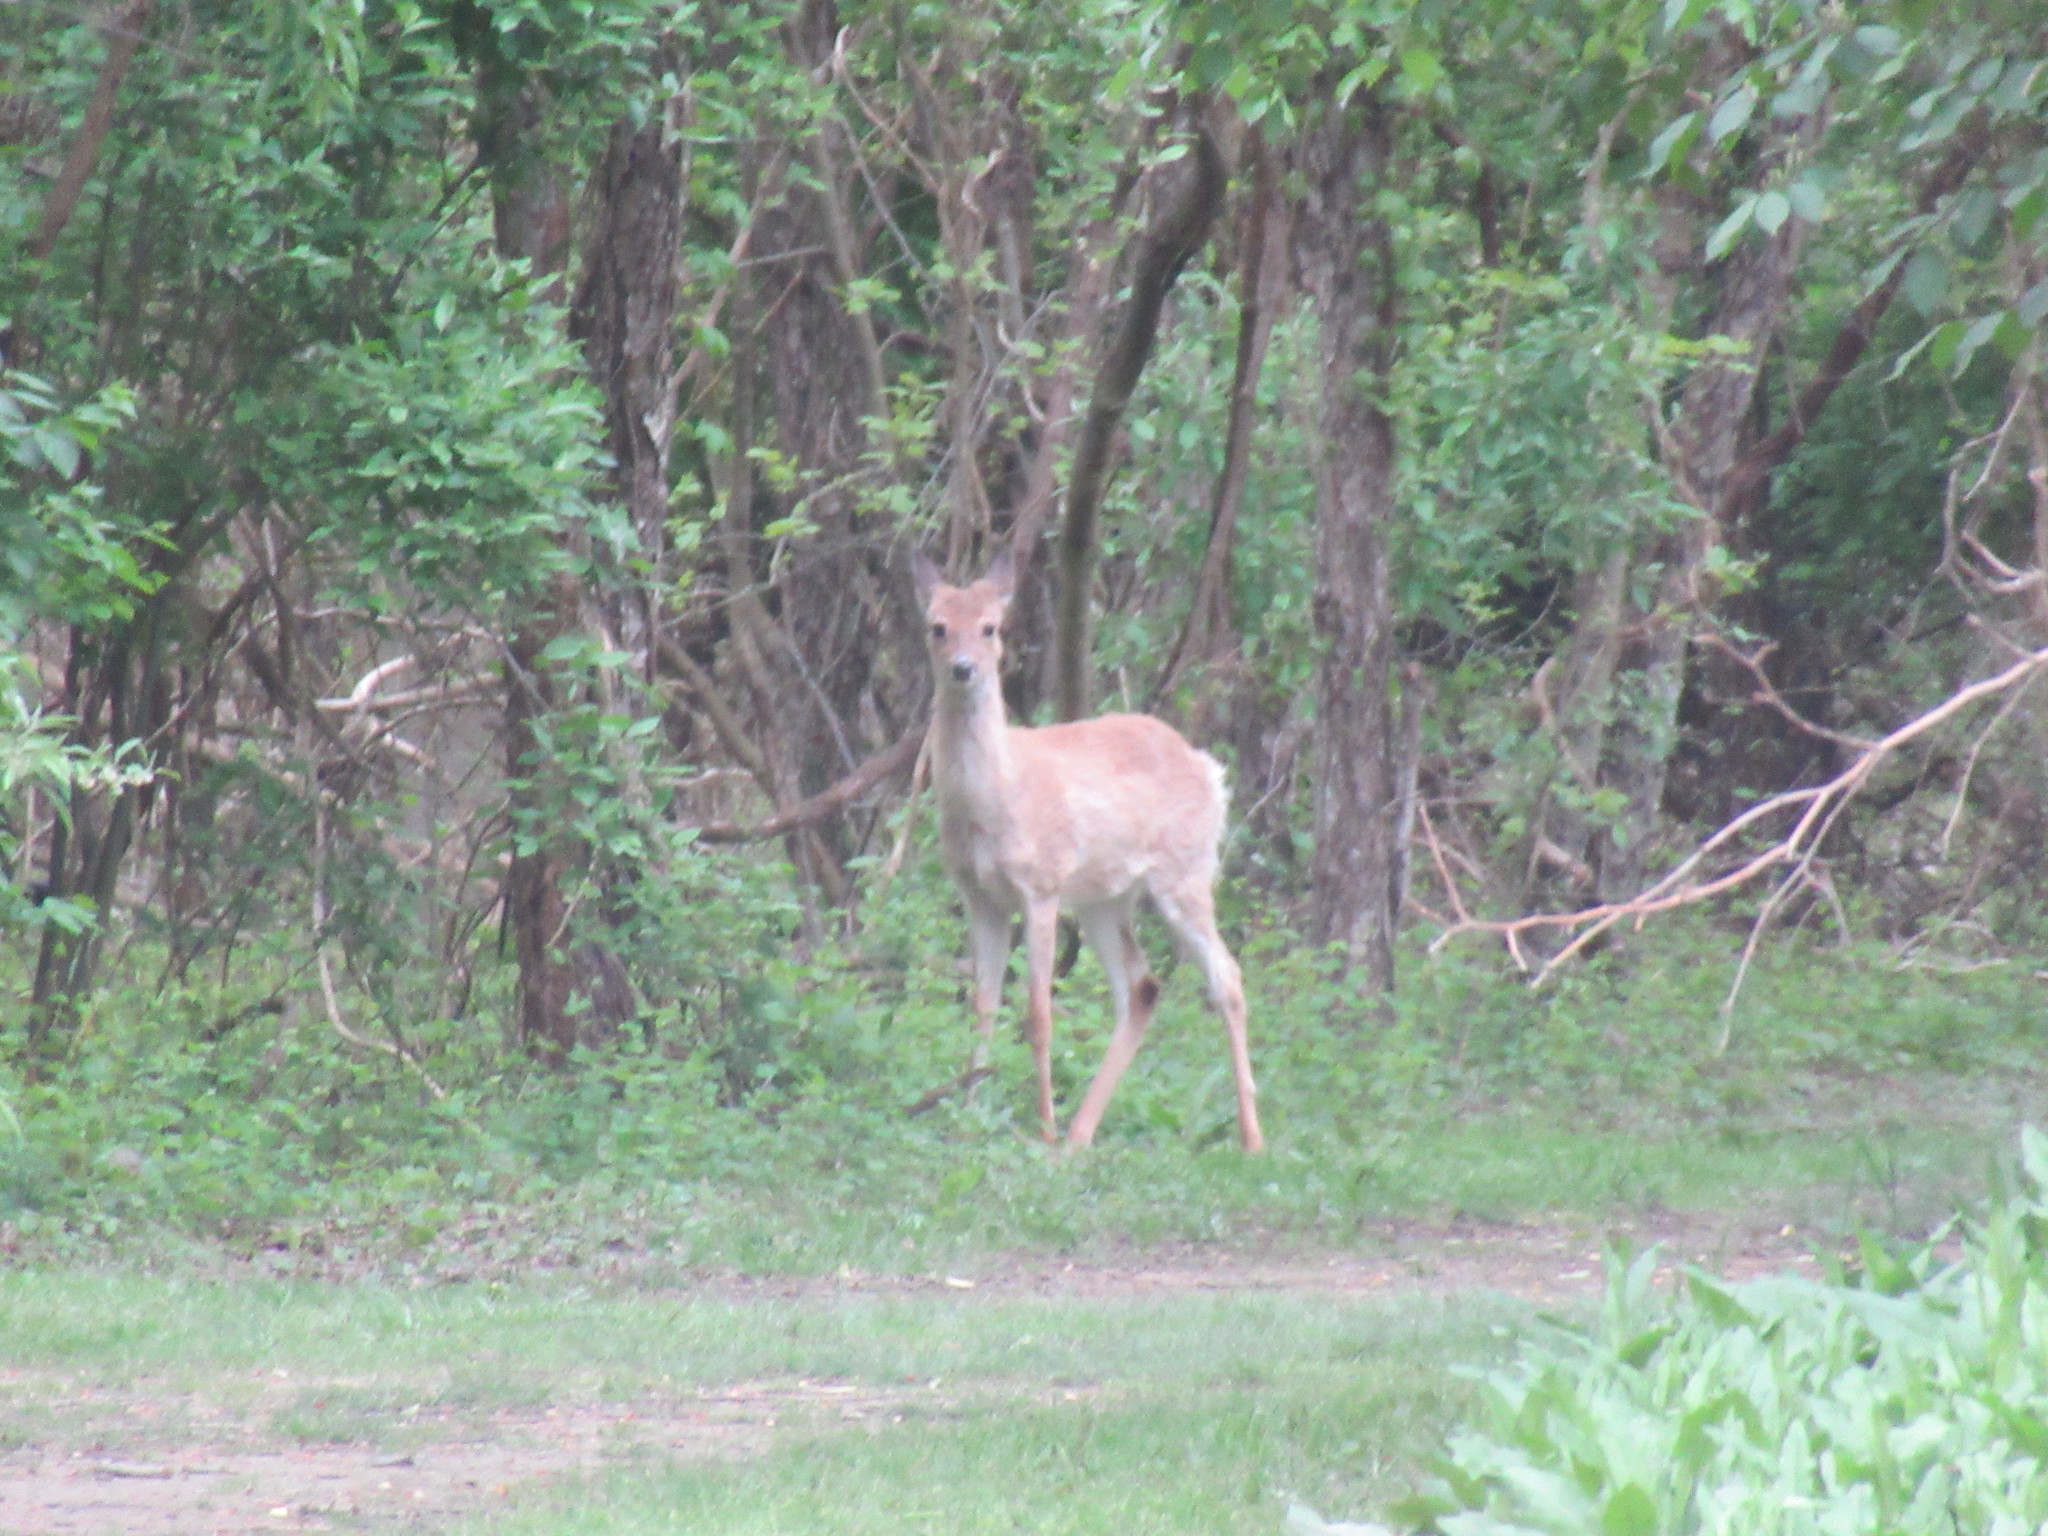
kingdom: Animalia
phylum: Chordata
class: Mammalia
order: Artiodactyla
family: Cervidae
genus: Odocoileus
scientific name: Odocoileus virginianus
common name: White-tailed deer
